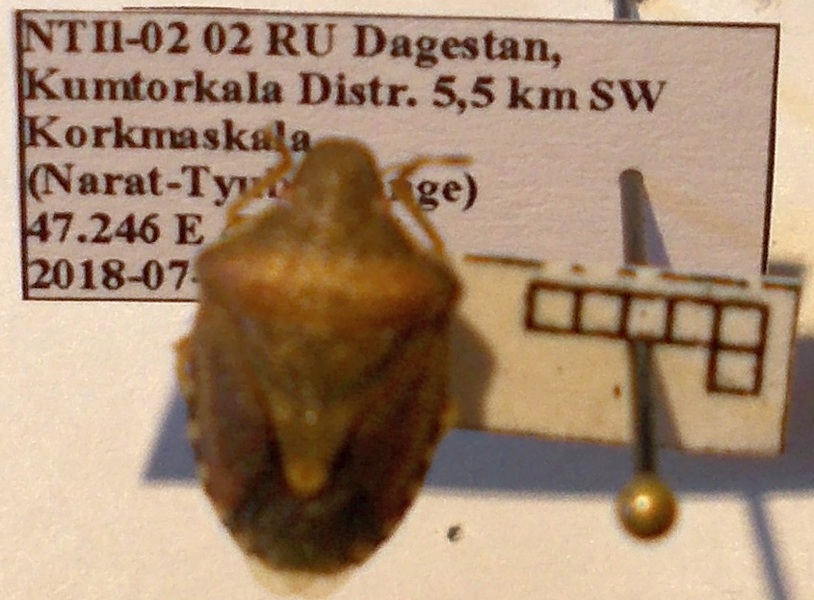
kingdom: Animalia
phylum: Arthropoda
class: Insecta
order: Hemiptera
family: Pentatomidae
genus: Holcostethus
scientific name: Holcostethus strictus
